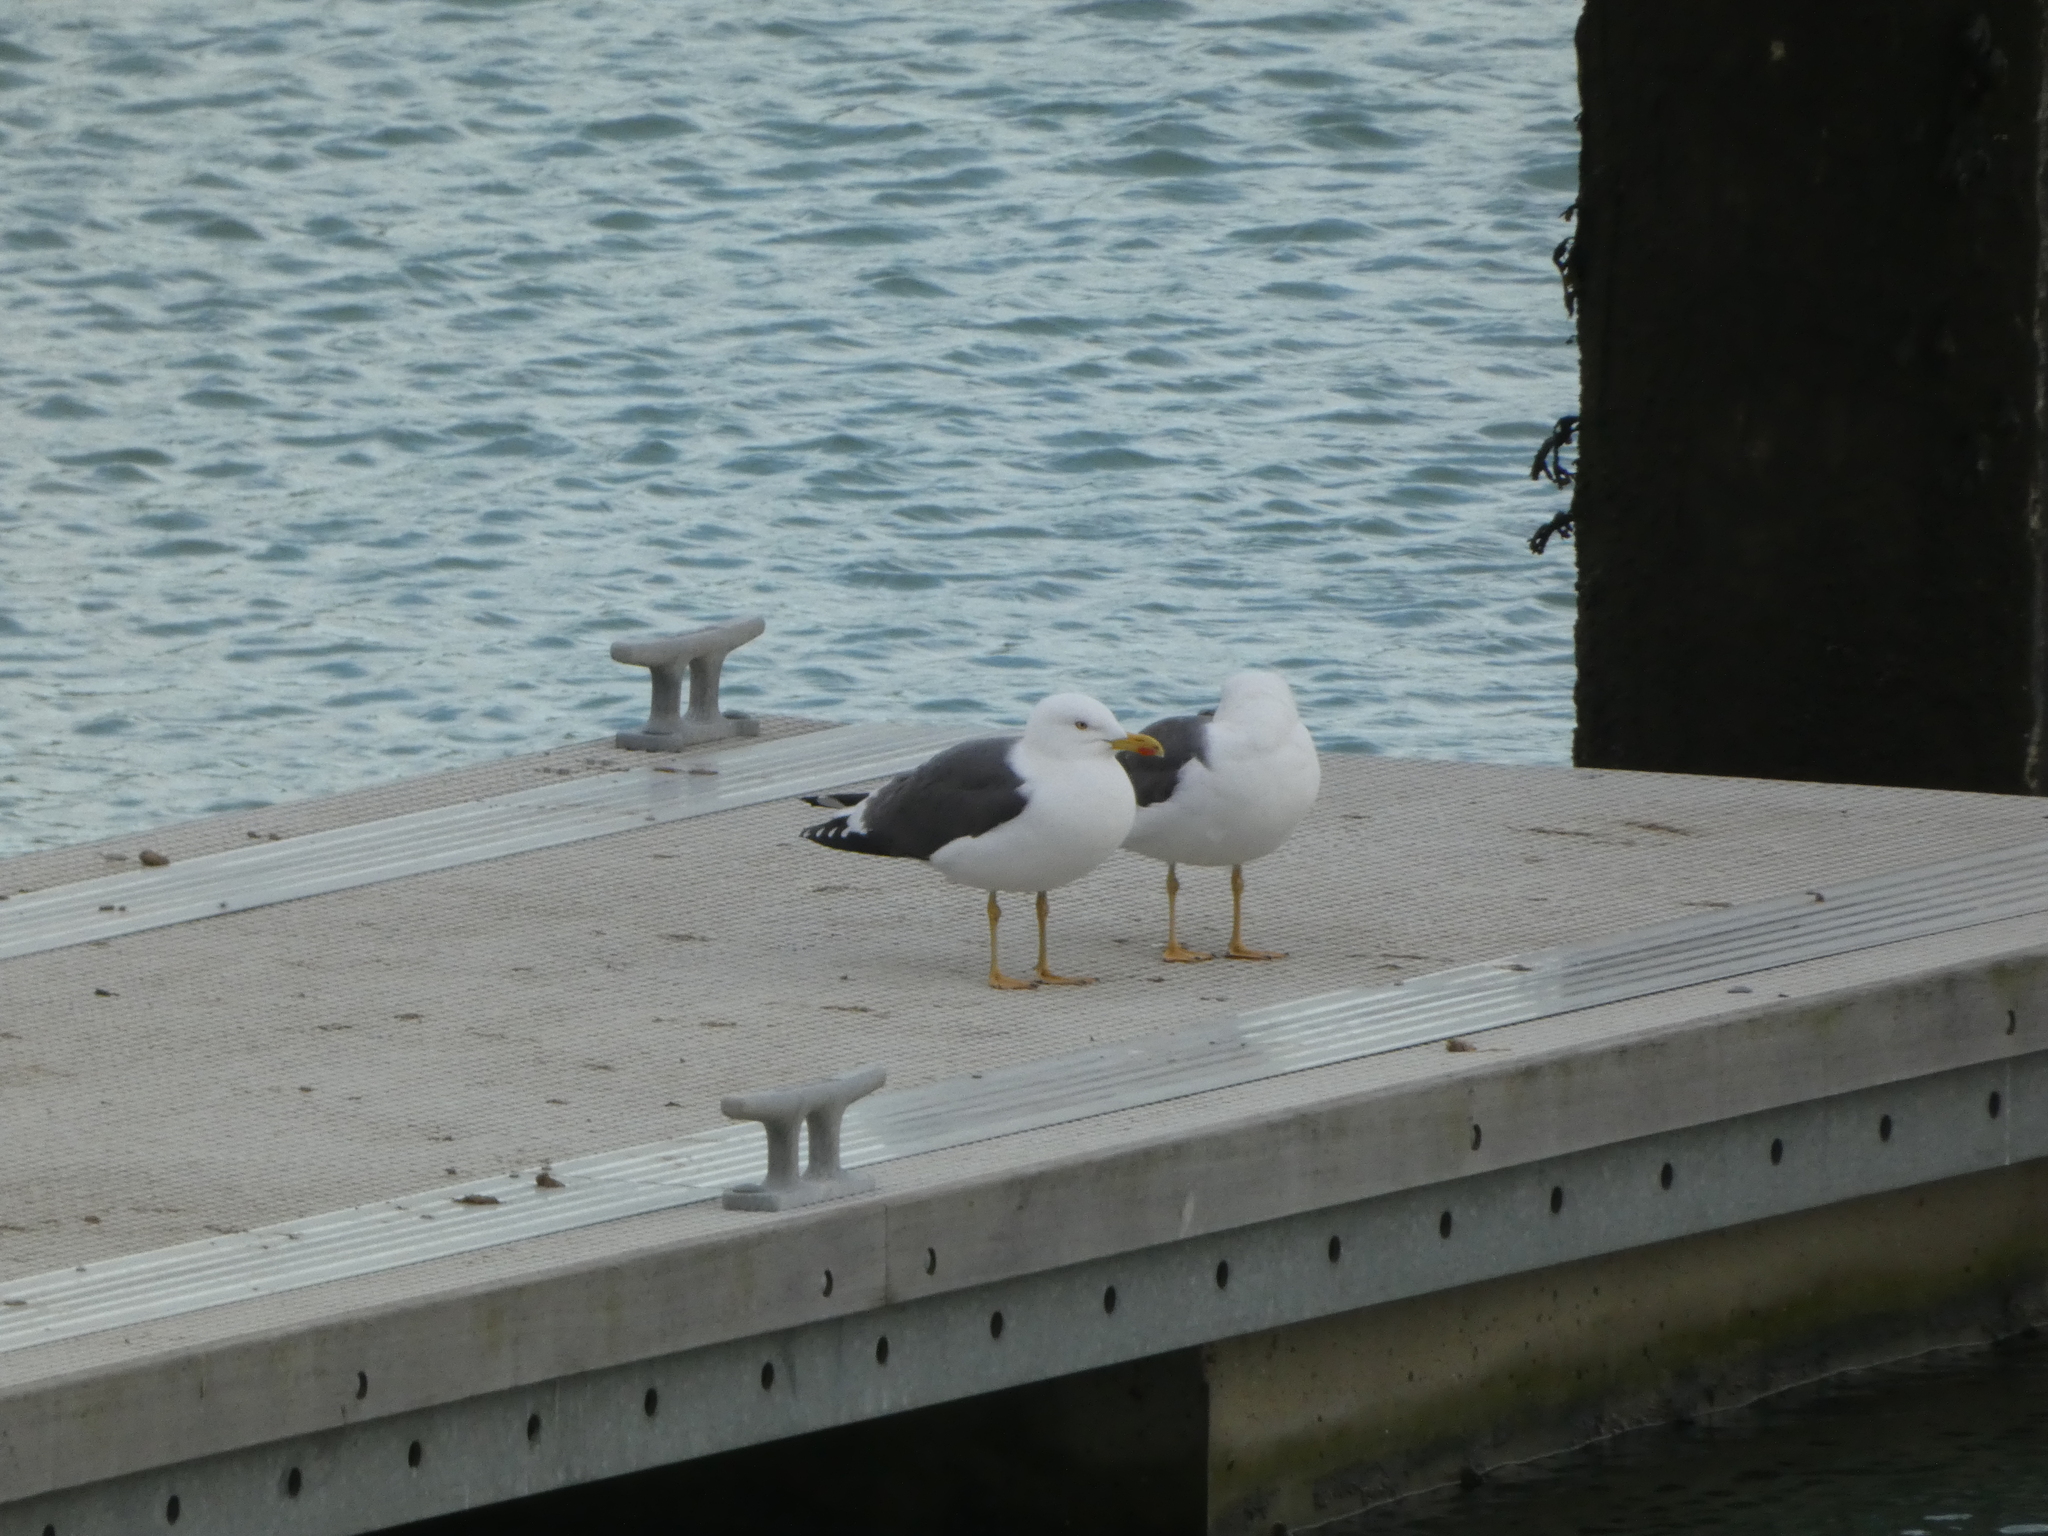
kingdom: Animalia
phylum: Chordata
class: Aves
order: Charadriiformes
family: Laridae
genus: Larus
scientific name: Larus fuscus
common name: Lesser black-backed gull
